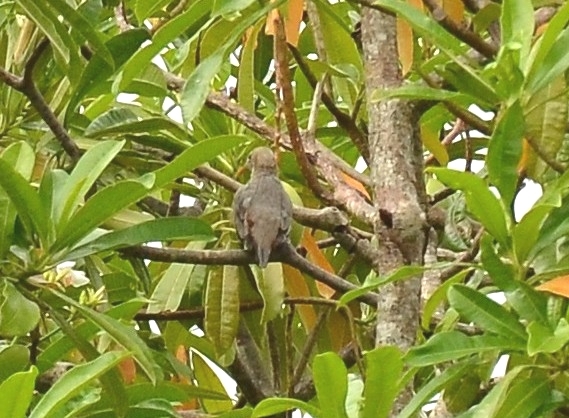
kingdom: Animalia
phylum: Chordata
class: Aves
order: Passeriformes
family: Sturnidae
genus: Sturnia
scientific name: Sturnia malabarica
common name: Chestnut-tailed starling
